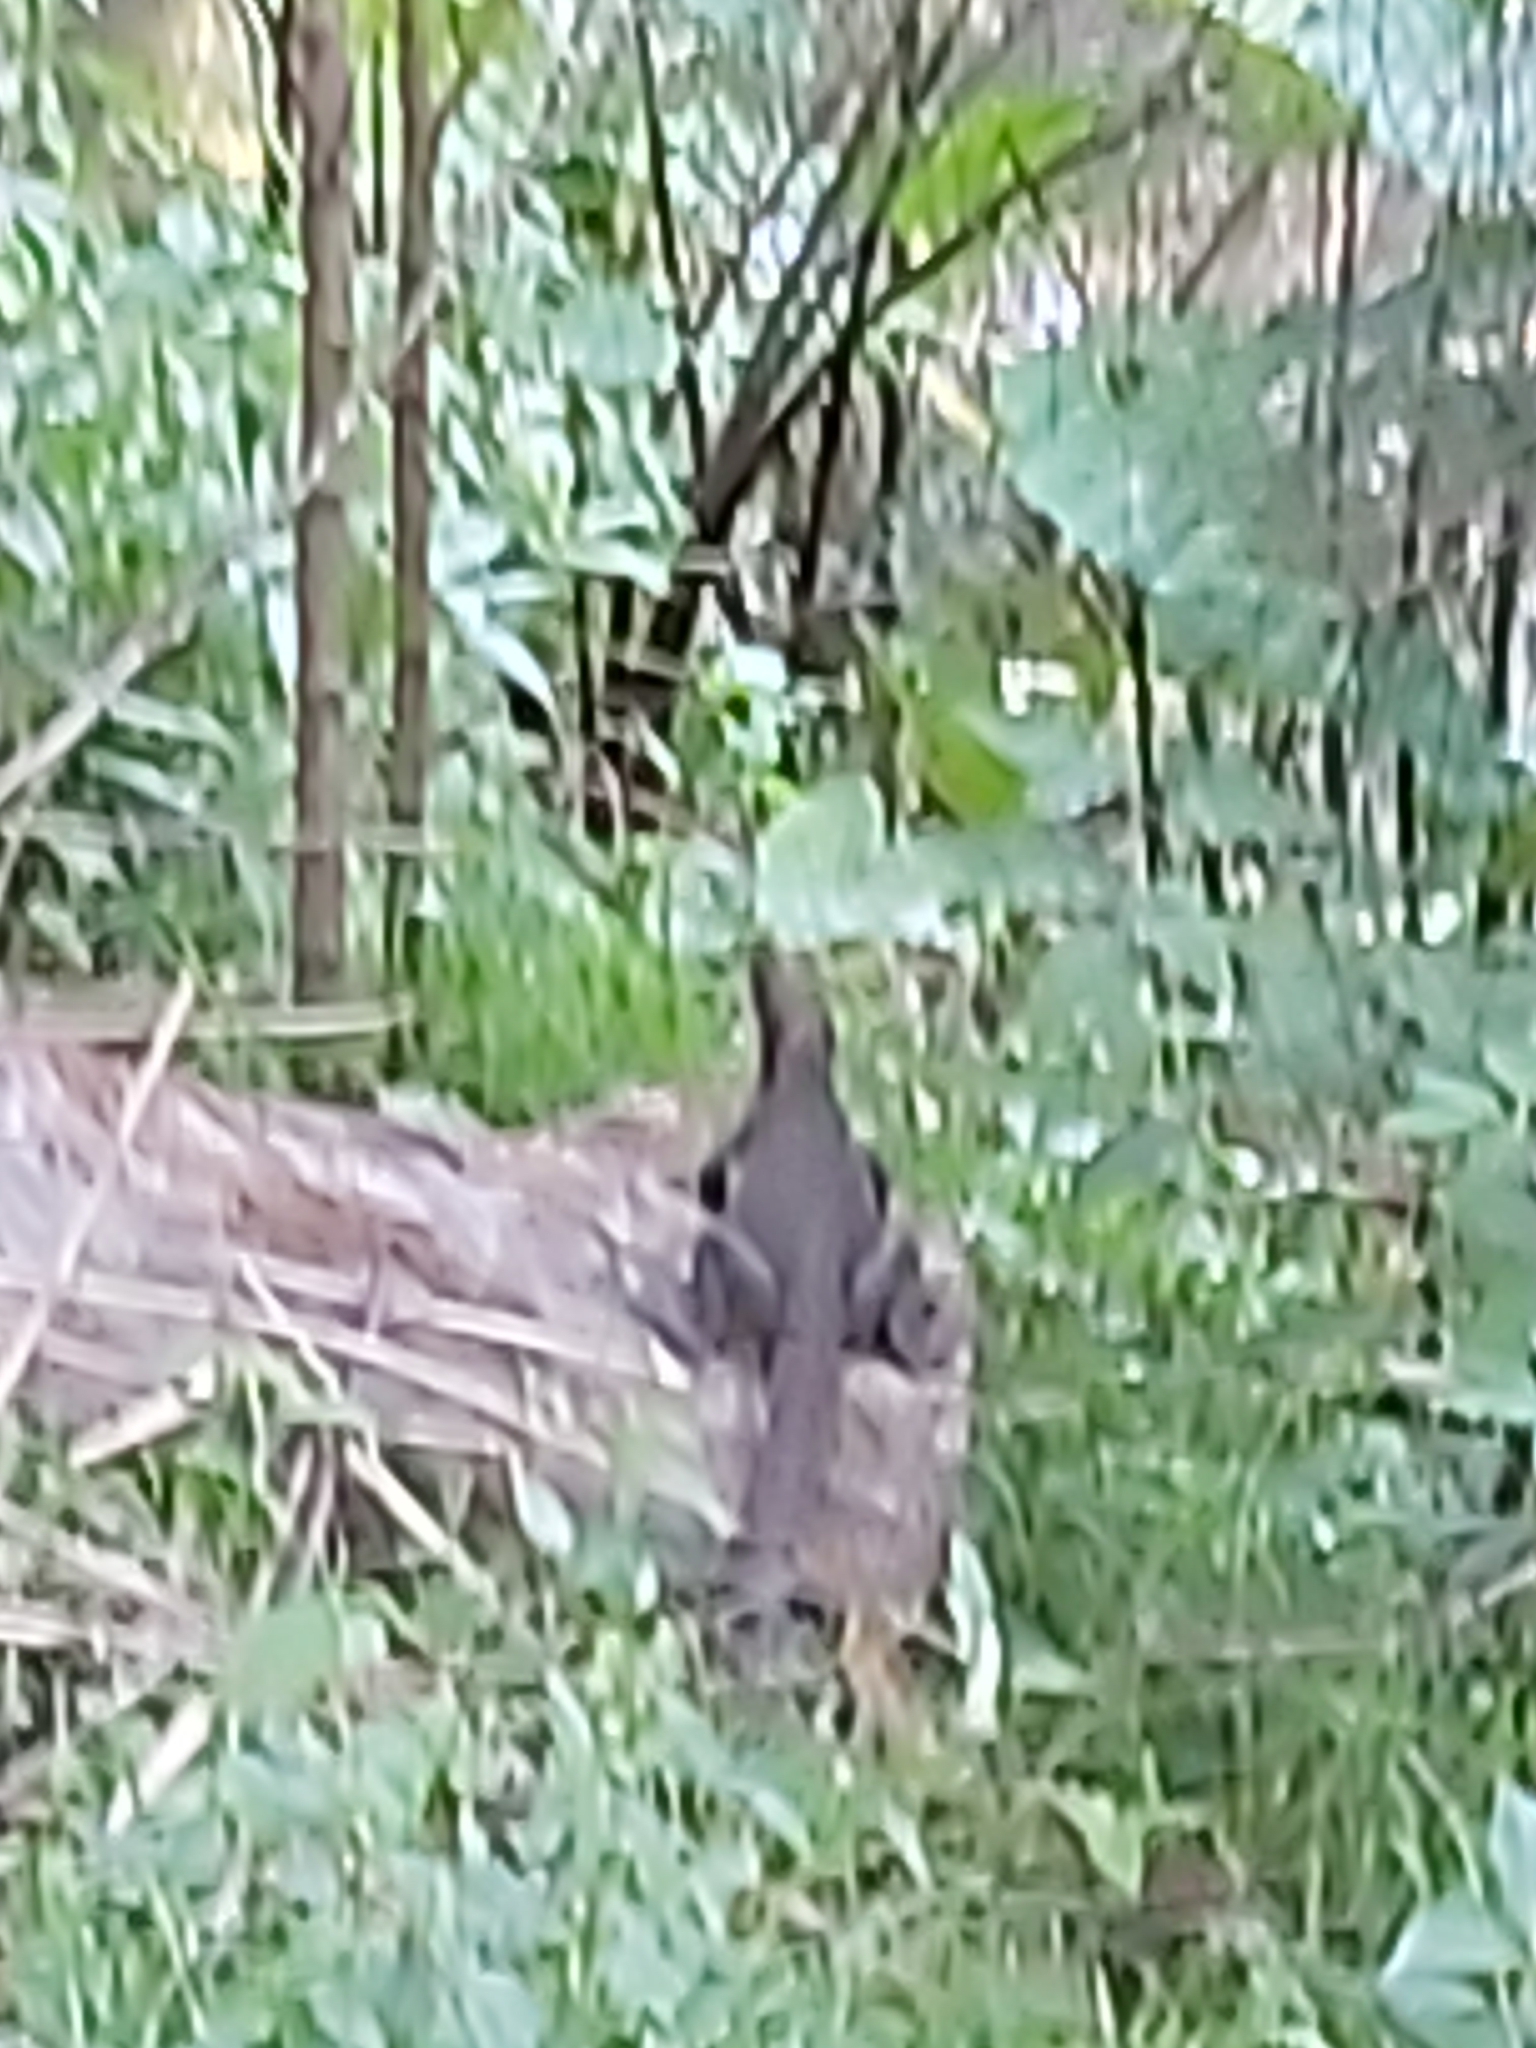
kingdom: Animalia
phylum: Chordata
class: Squamata
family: Agamidae
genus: Intellagama
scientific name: Intellagama lesueurii
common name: Eastern water dragon
